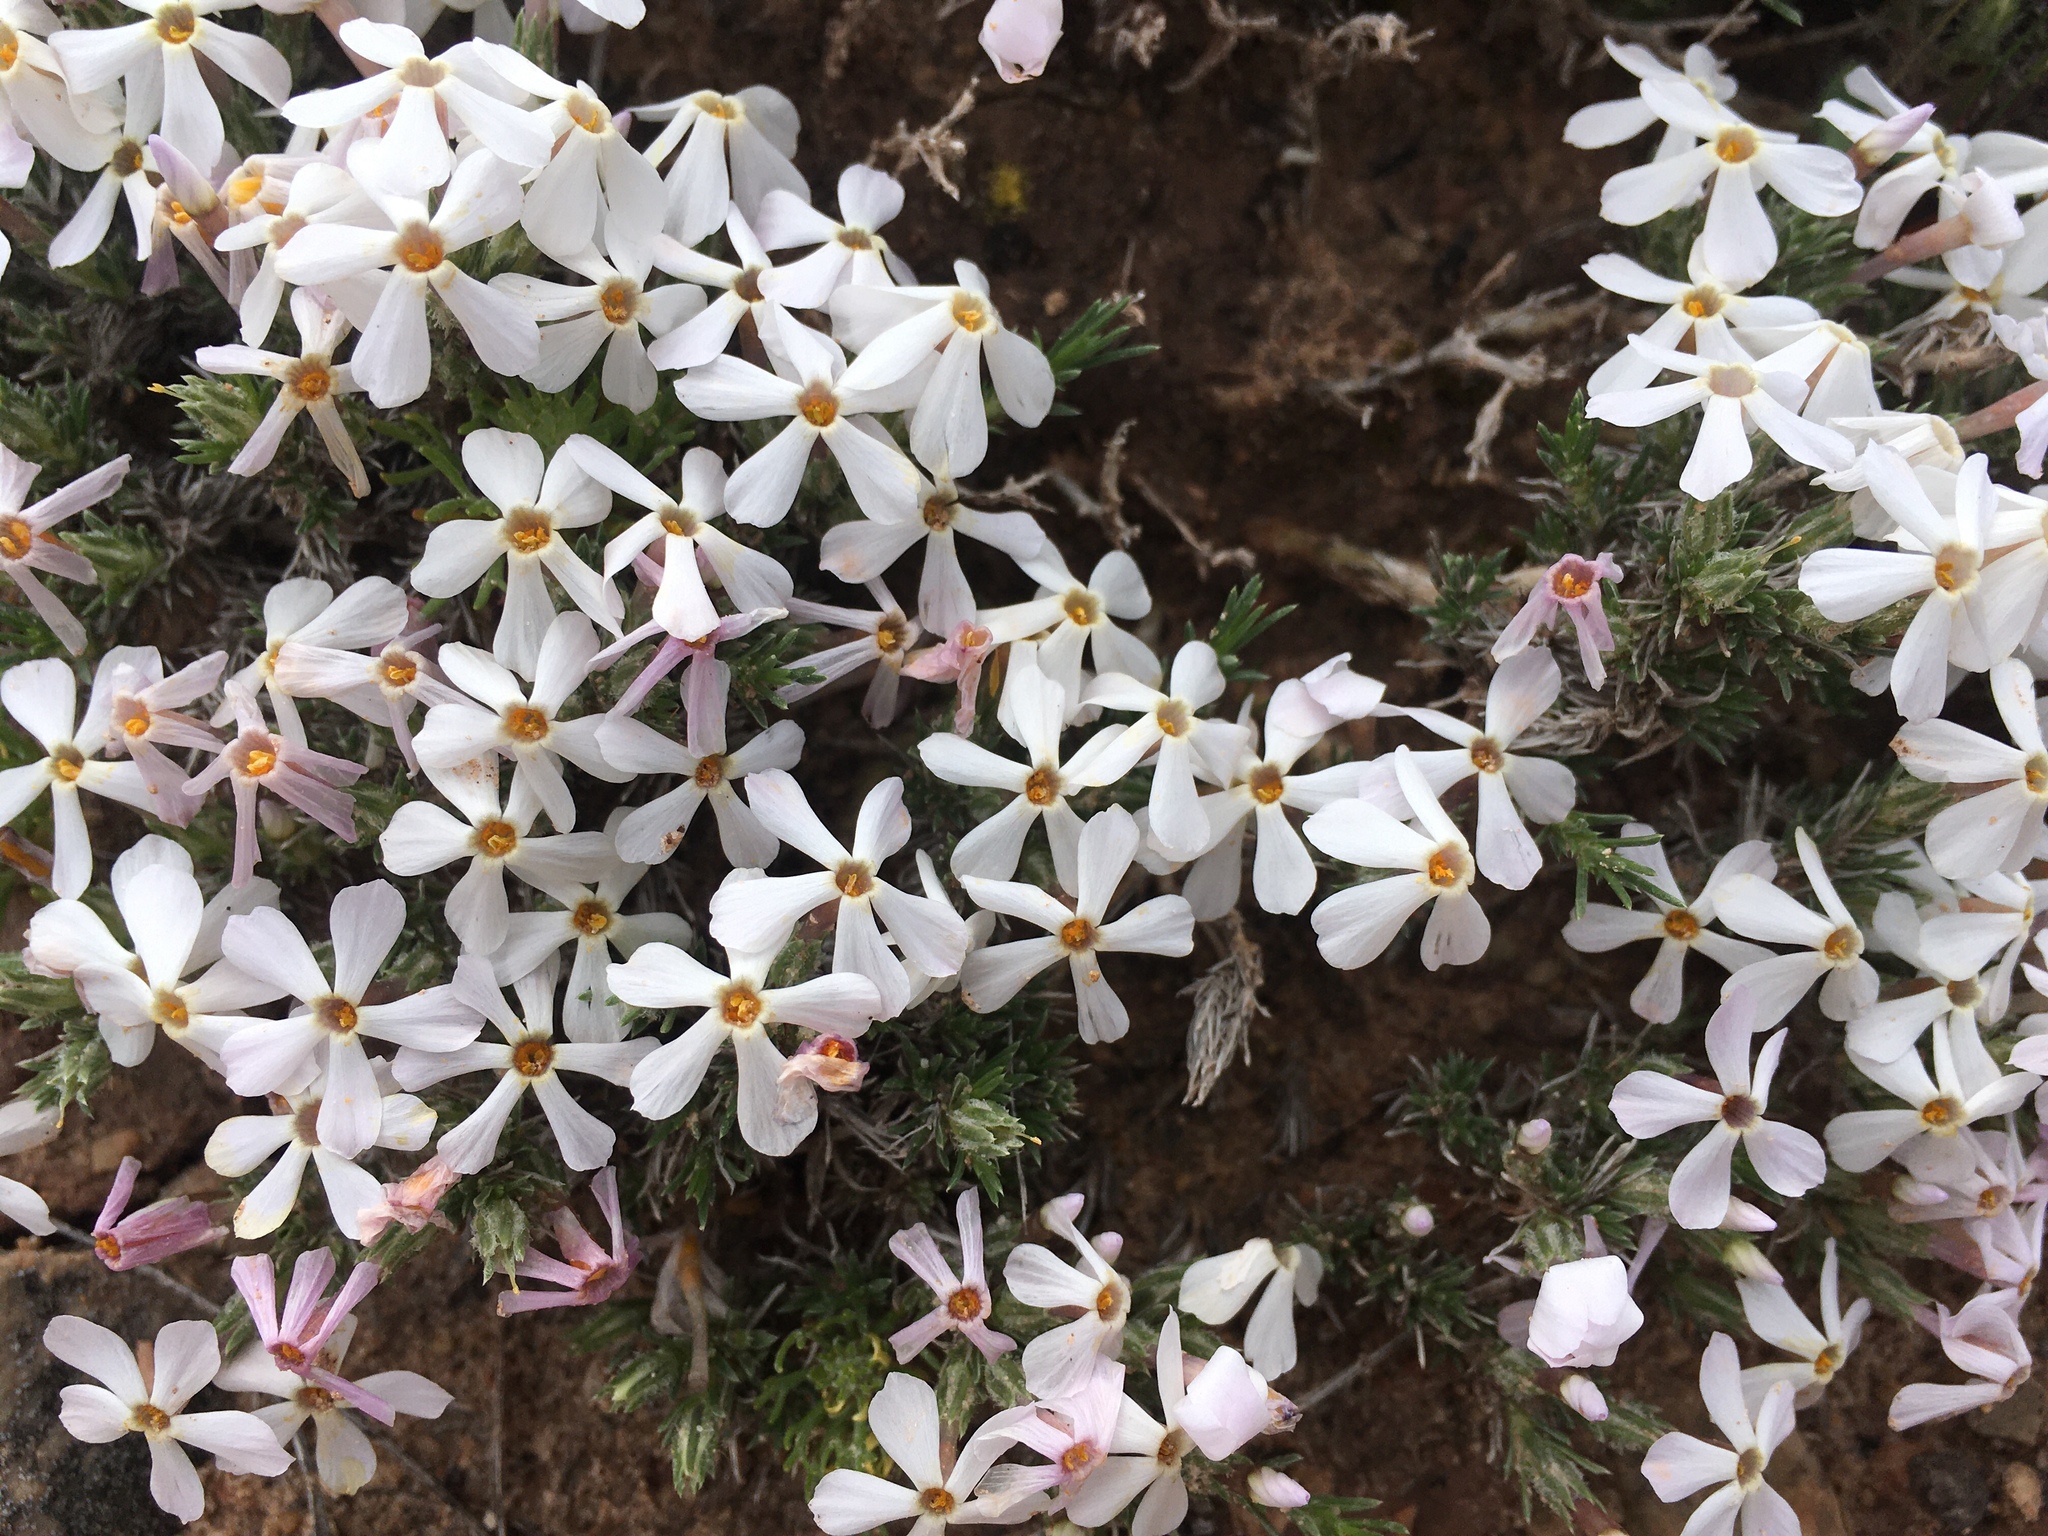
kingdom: Plantae
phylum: Tracheophyta
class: Magnoliopsida
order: Ericales
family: Polemoniaceae
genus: Phlox
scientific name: Phlox hoodii
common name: Moss phlox
